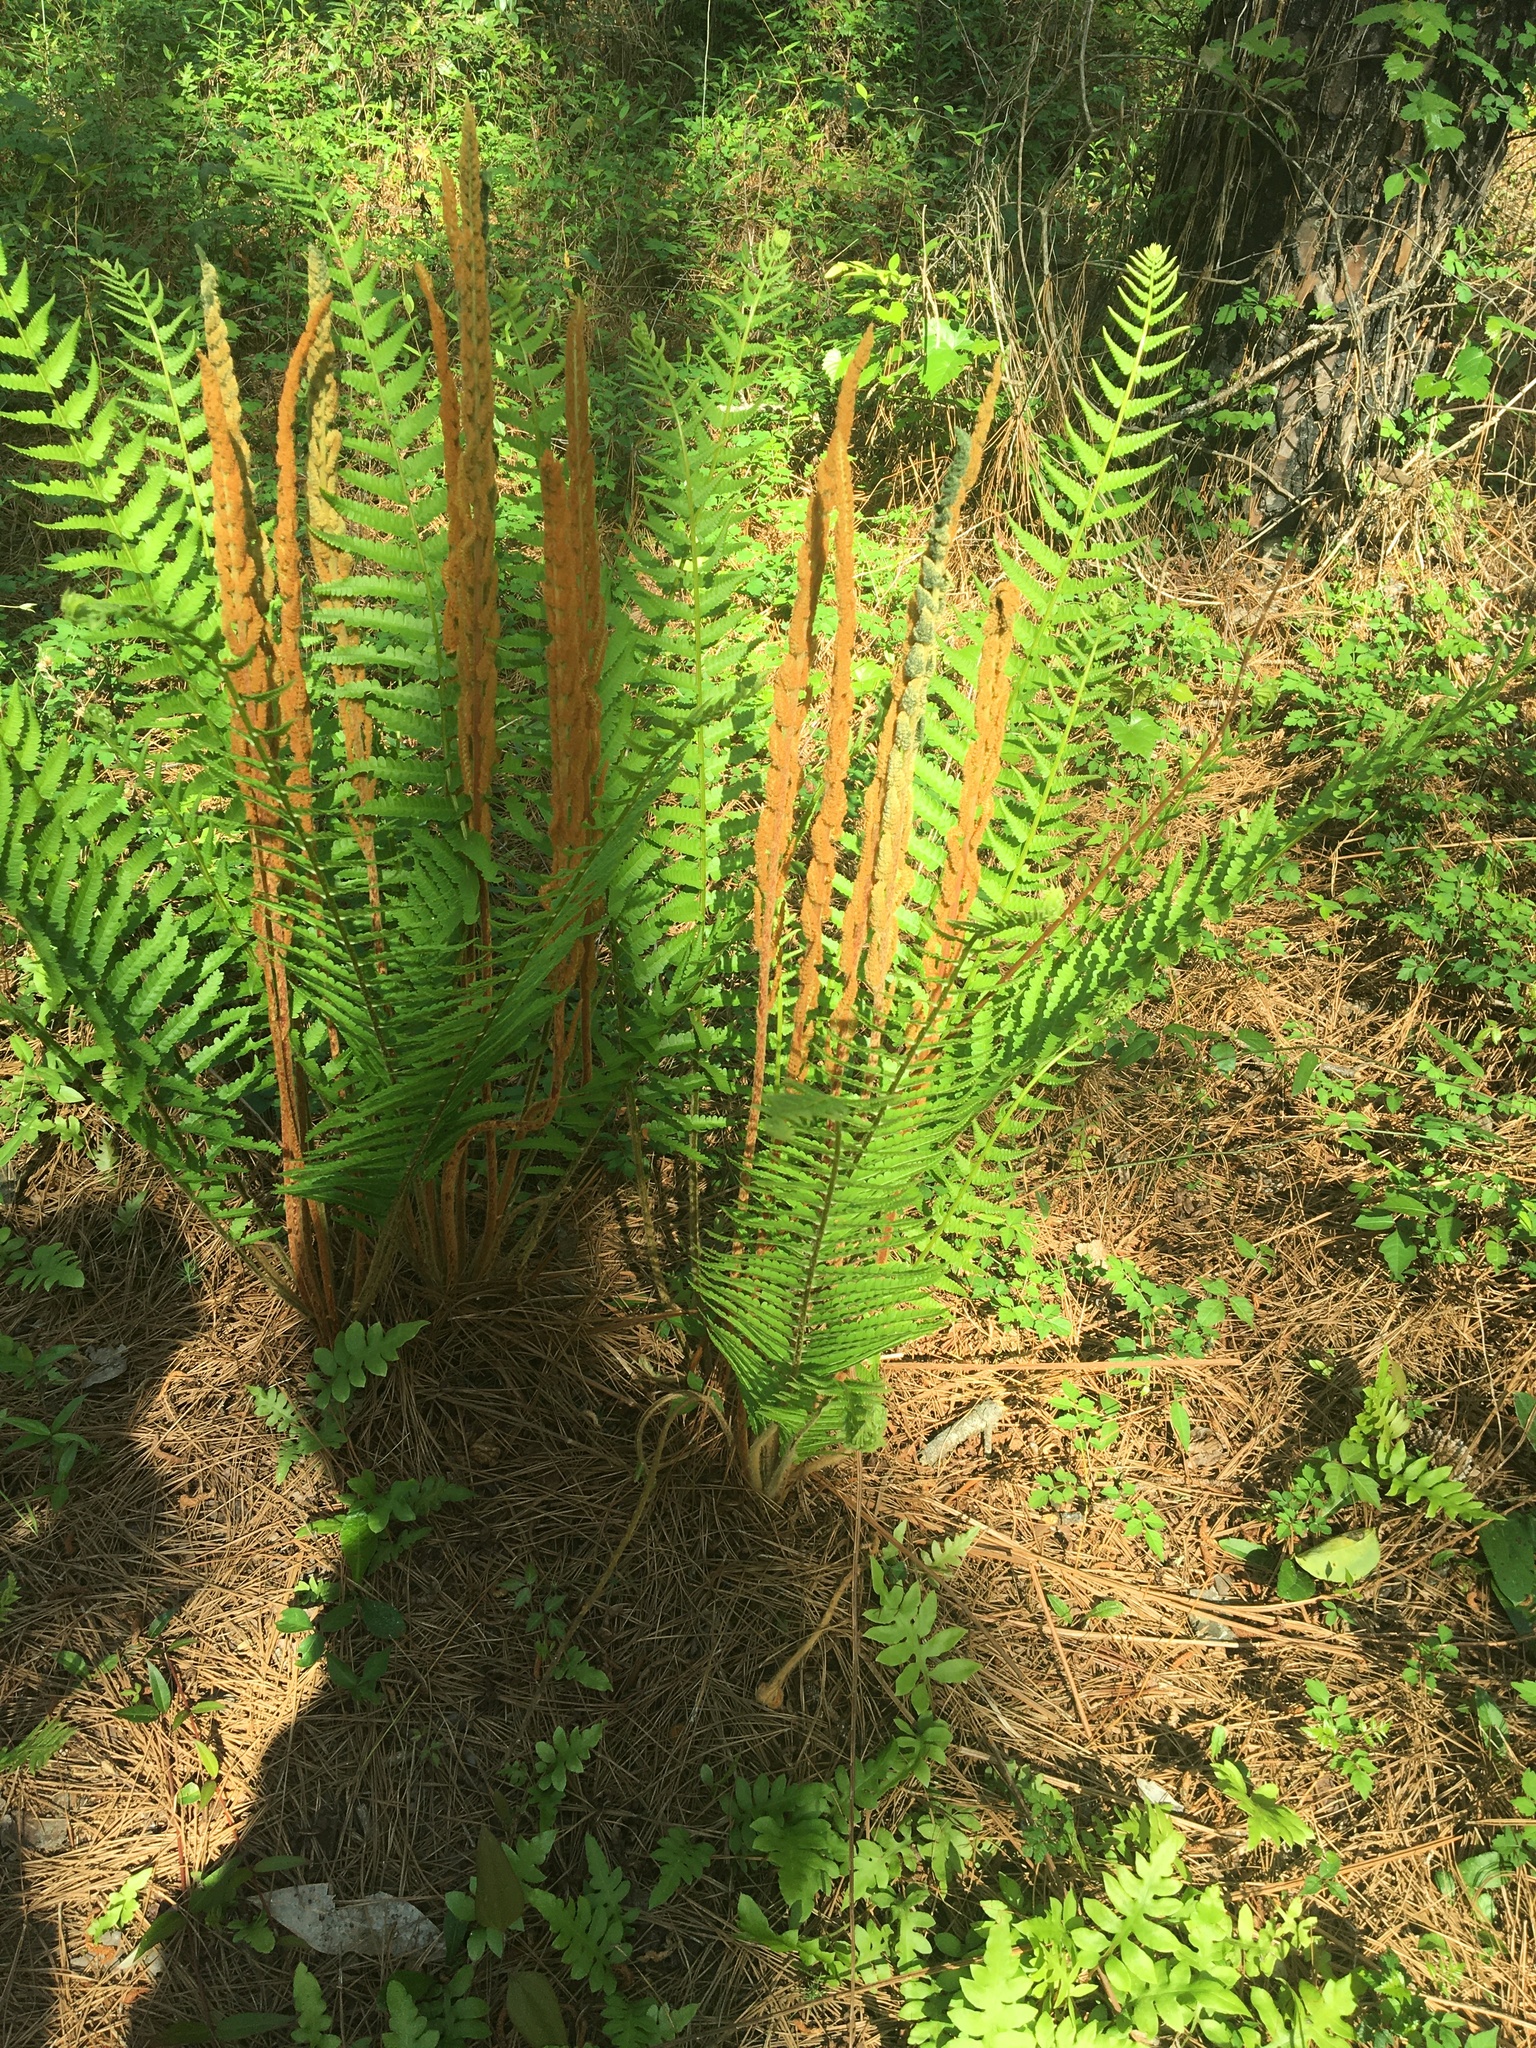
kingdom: Plantae
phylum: Tracheophyta
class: Polypodiopsida
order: Osmundales
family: Osmundaceae
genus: Osmundastrum
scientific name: Osmundastrum cinnamomeum
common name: Cinnamon fern
